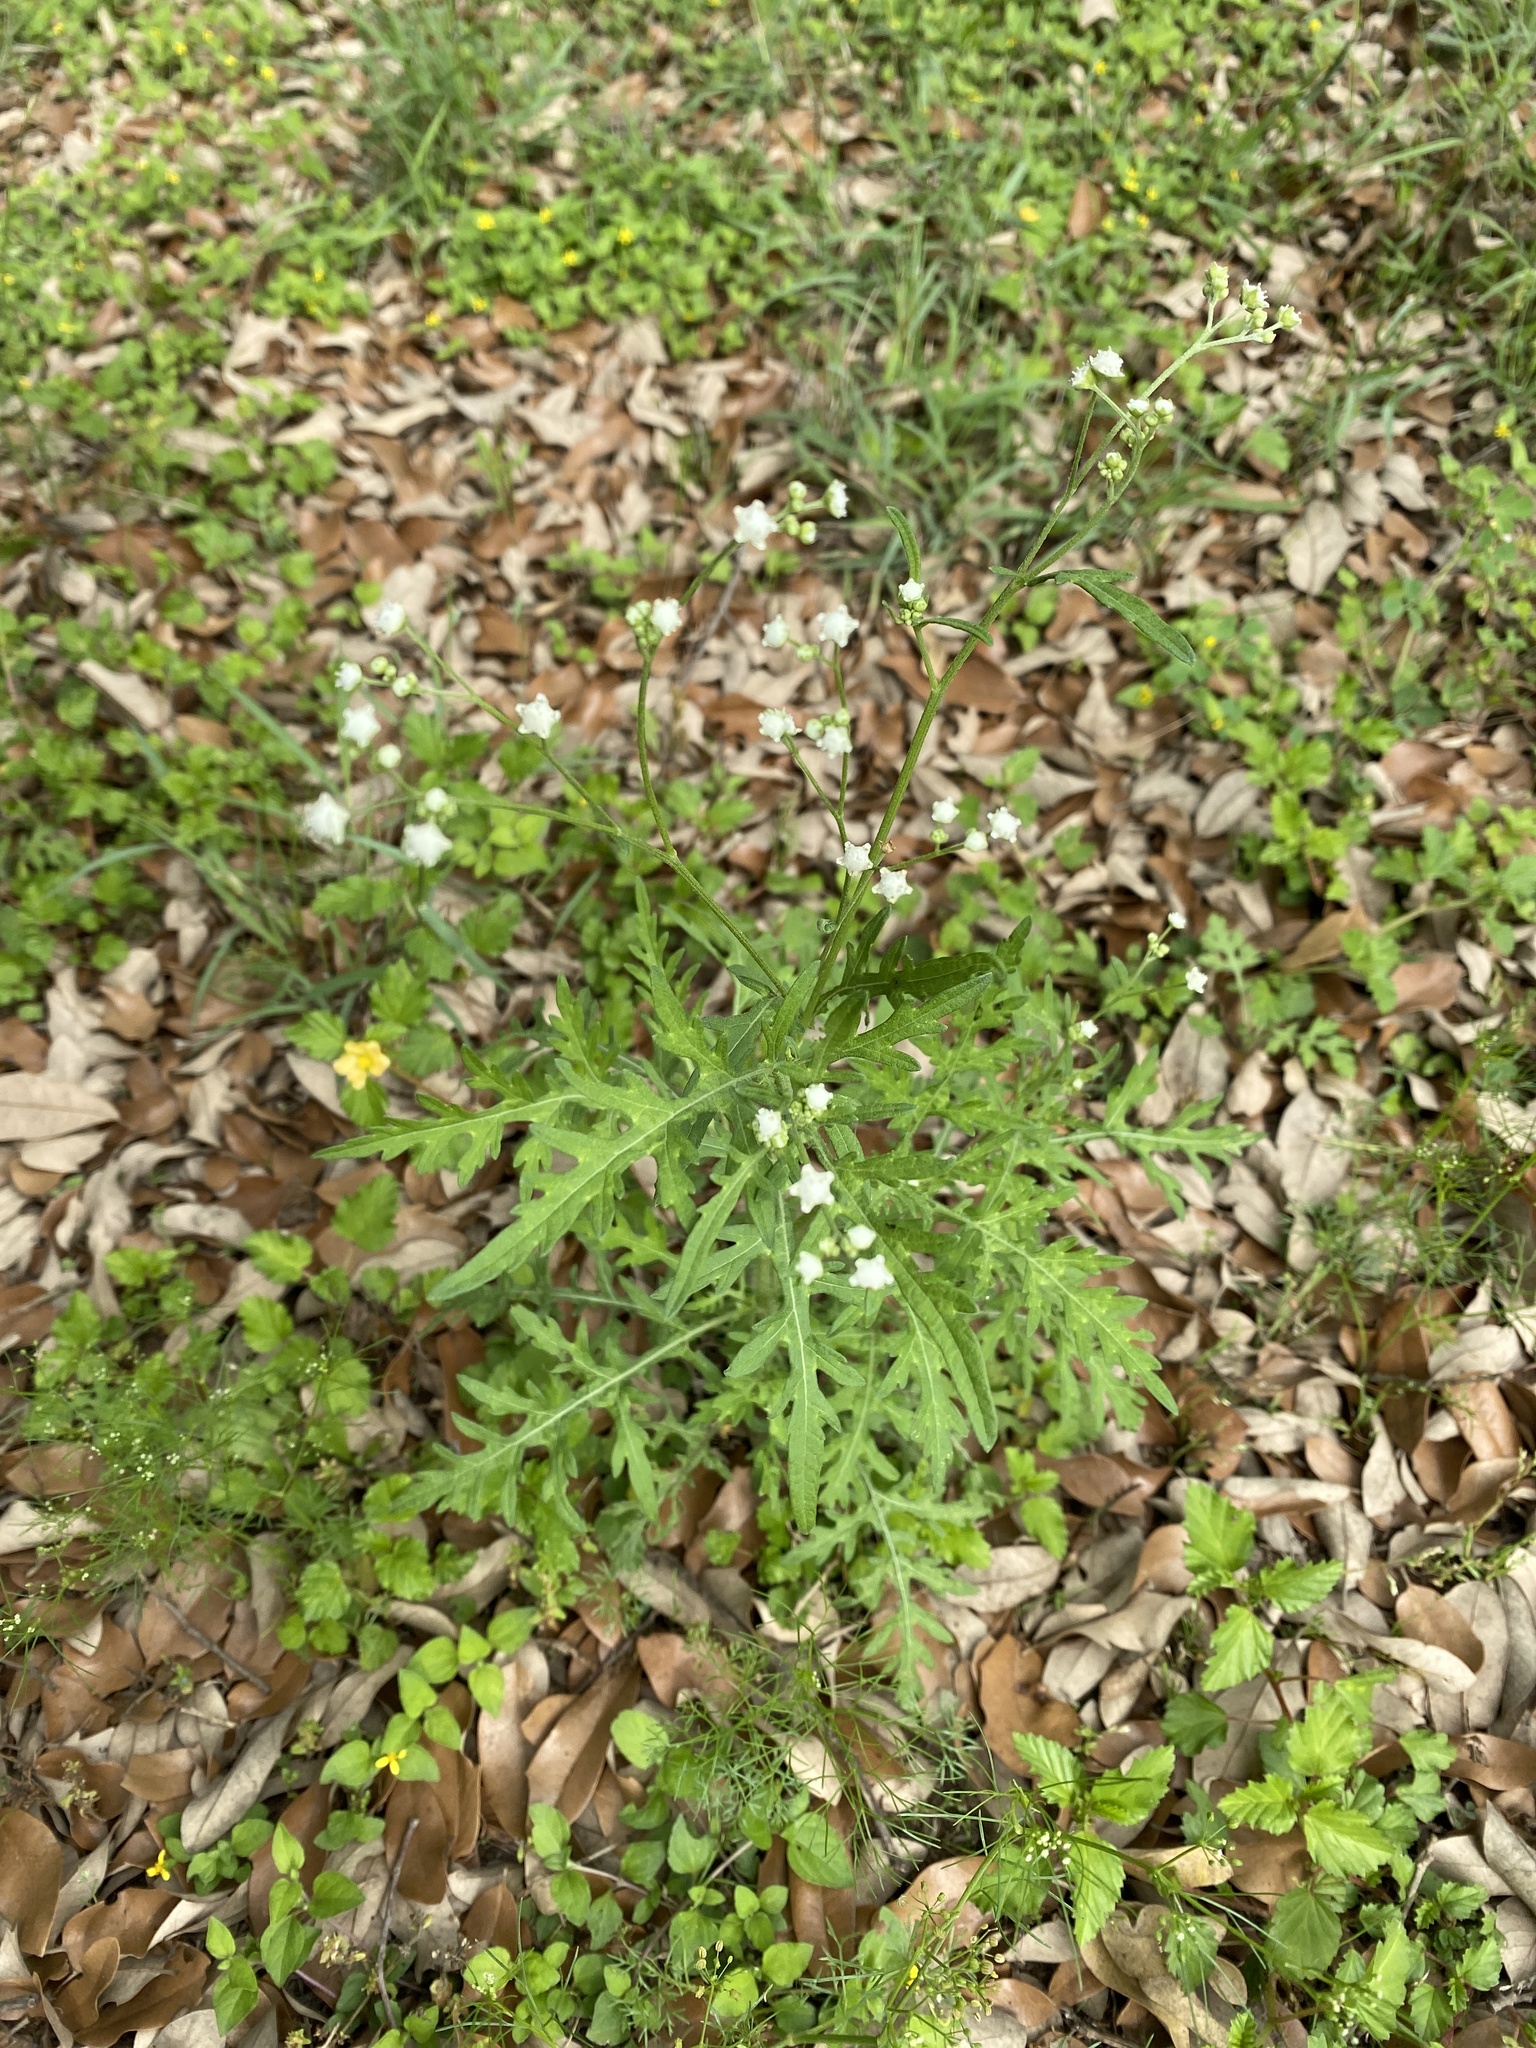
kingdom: Plantae
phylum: Tracheophyta
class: Magnoliopsida
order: Asterales
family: Asteraceae
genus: Parthenium
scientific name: Parthenium hysterophorus
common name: Santa maria feverfew
